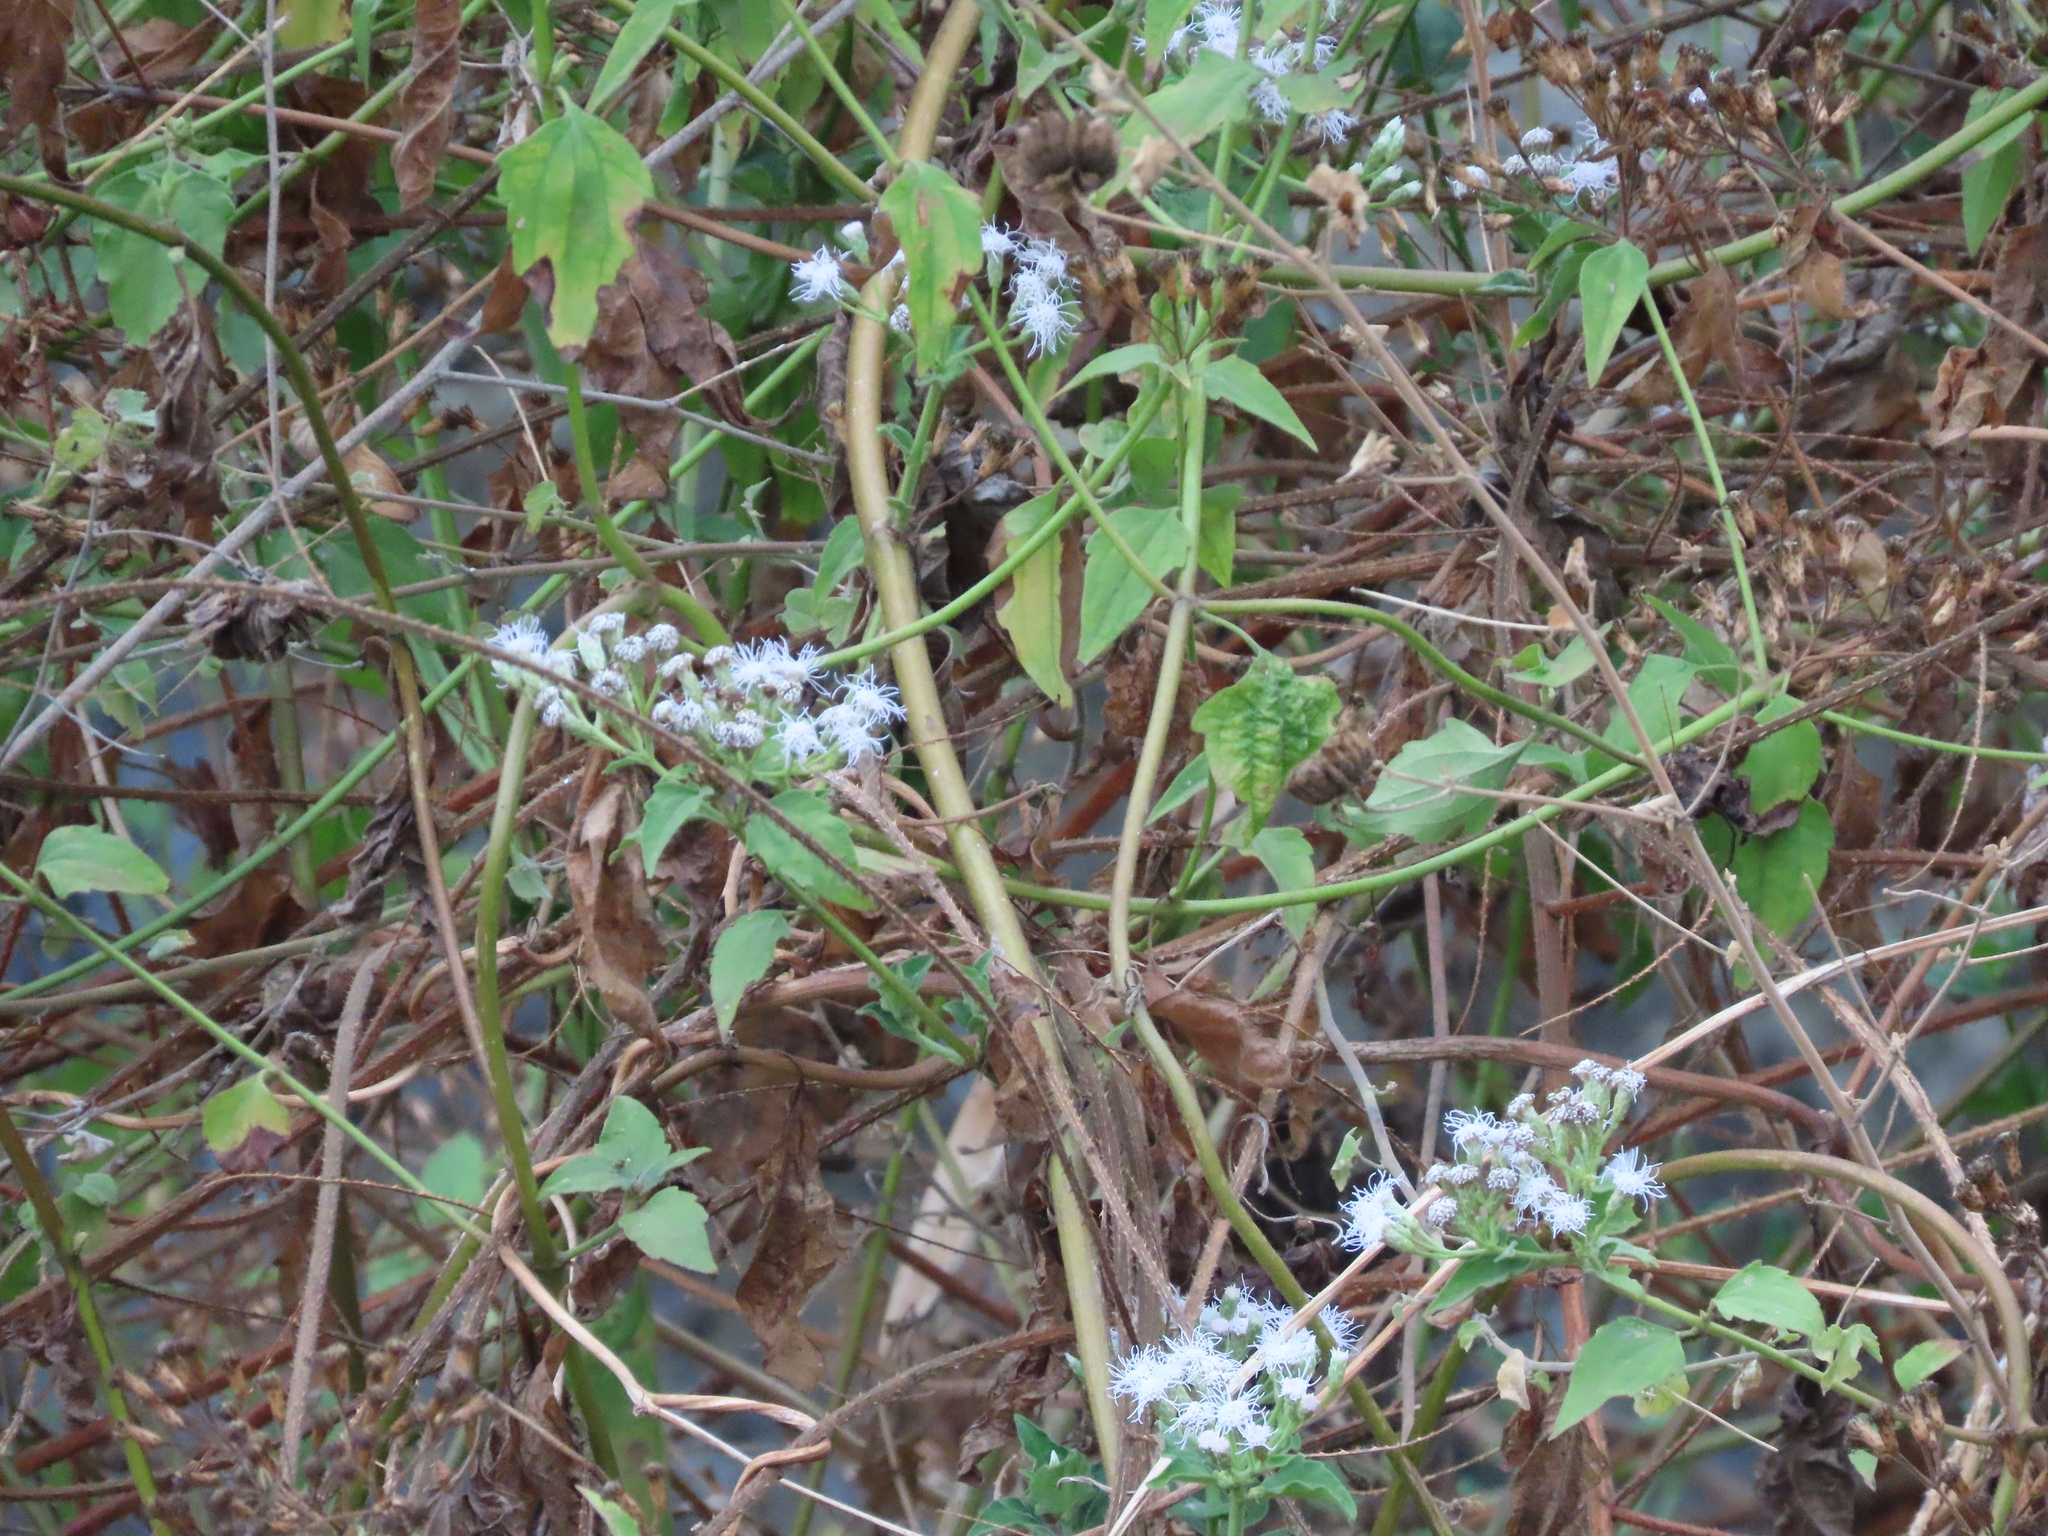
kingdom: Plantae
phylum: Tracheophyta
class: Magnoliopsida
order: Asterales
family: Asteraceae
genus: Chromolaena
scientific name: Chromolaena odorata
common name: Siamweed
